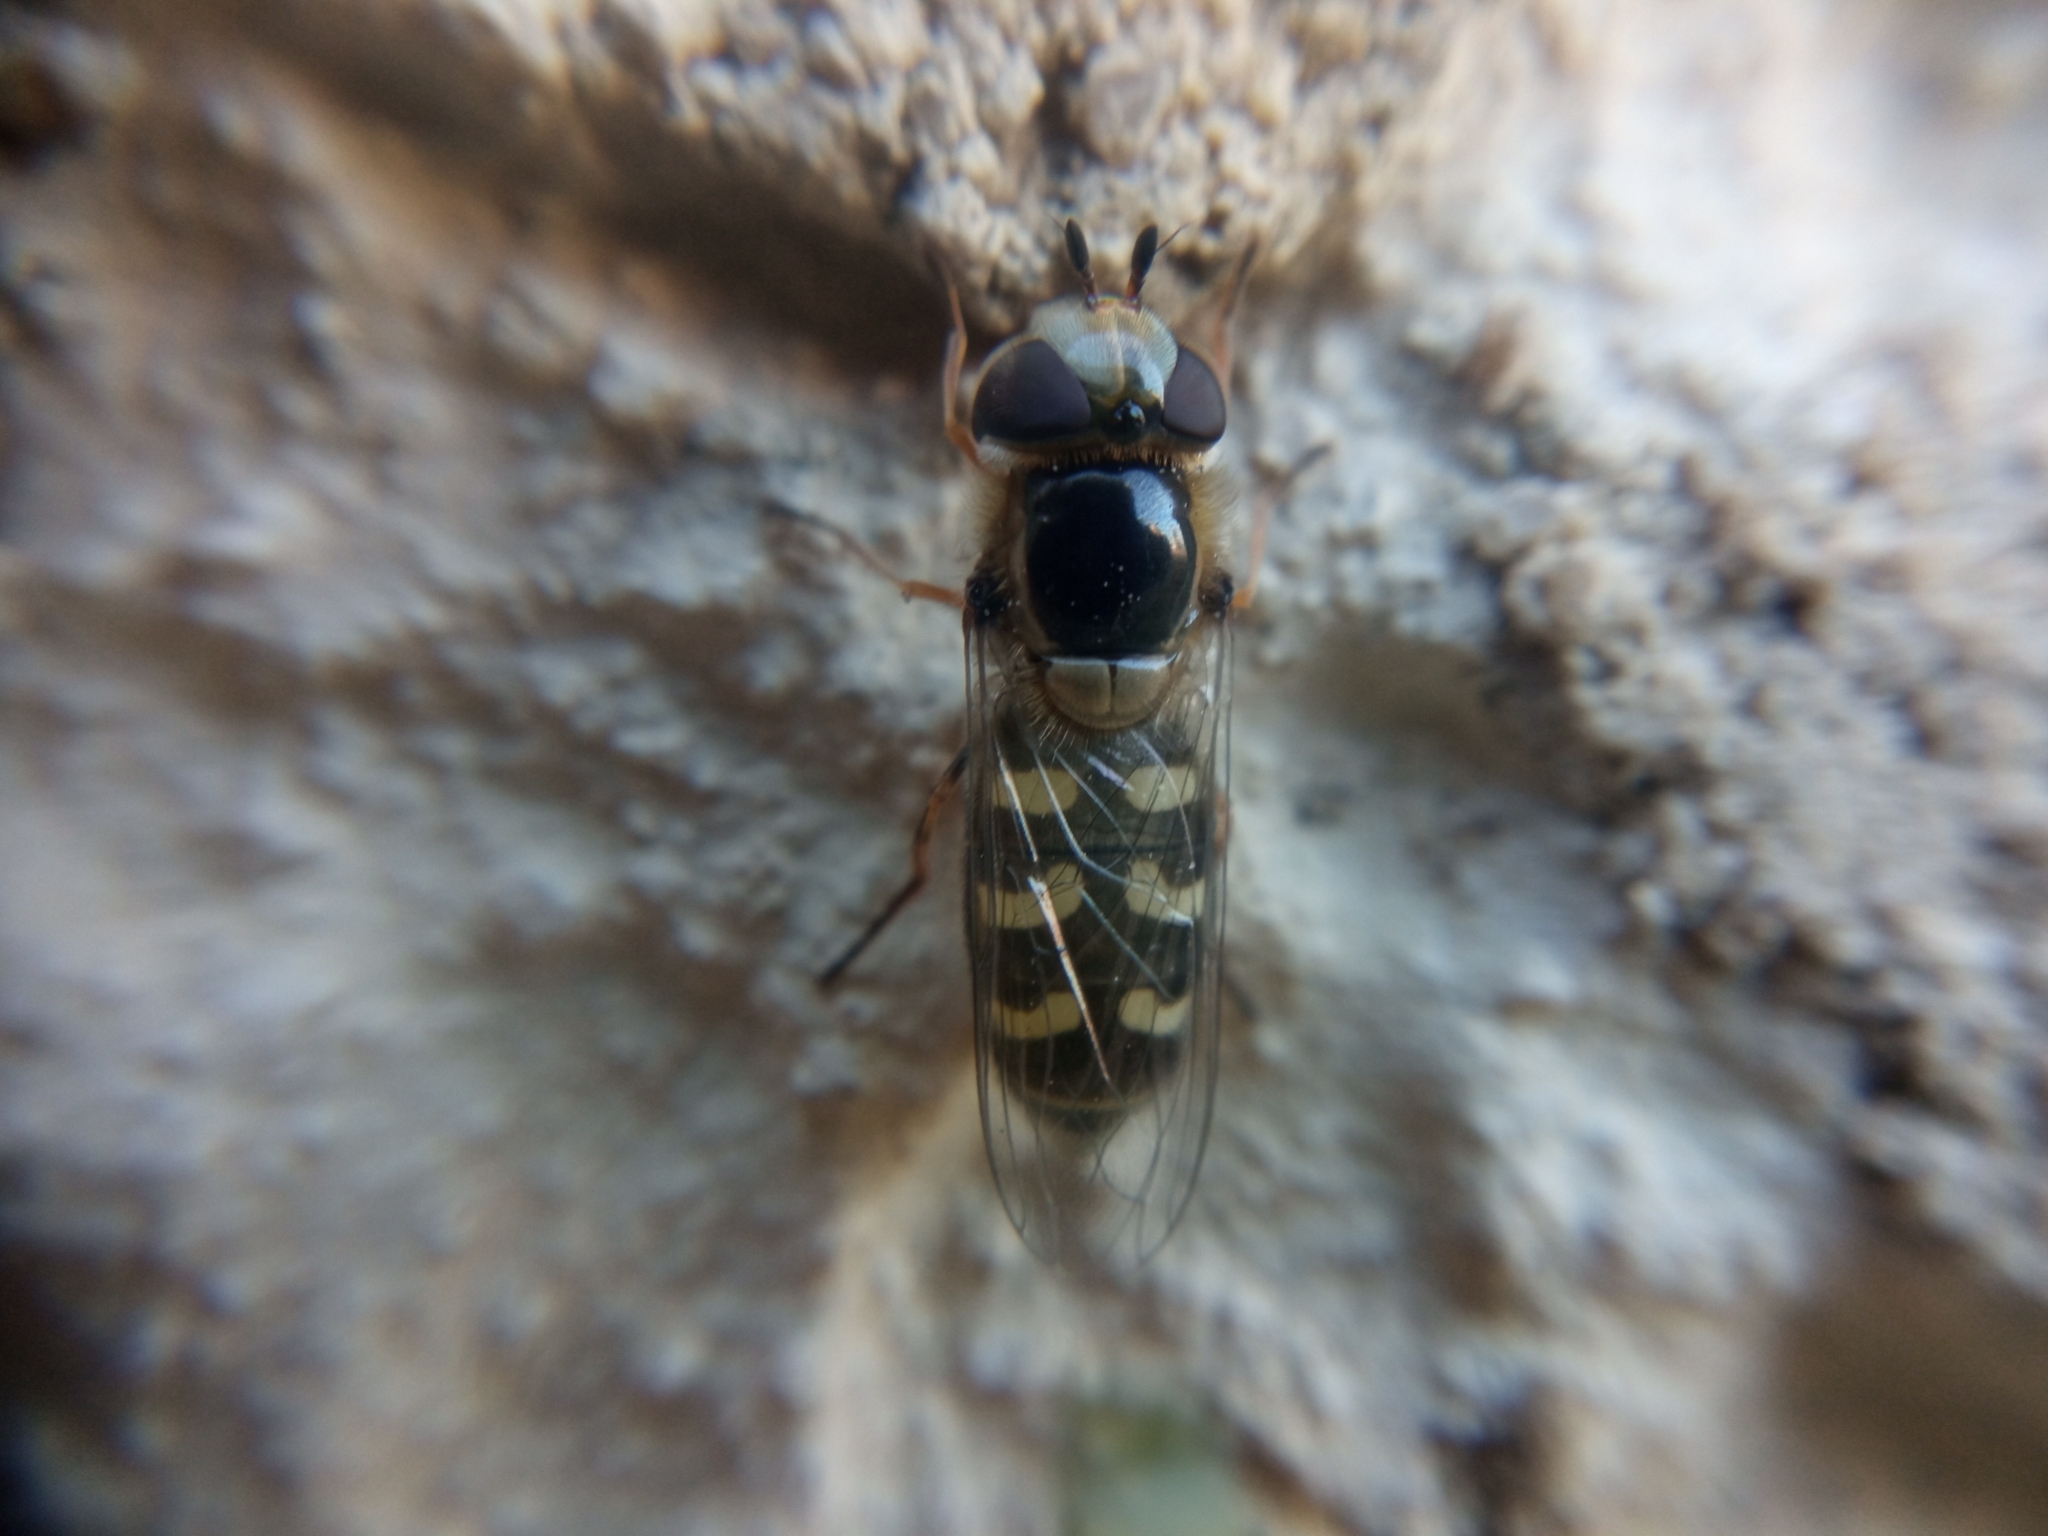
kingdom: Animalia
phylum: Arthropoda
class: Insecta
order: Diptera
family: Syrphidae
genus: Scaeva
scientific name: Scaeva pyrastri
